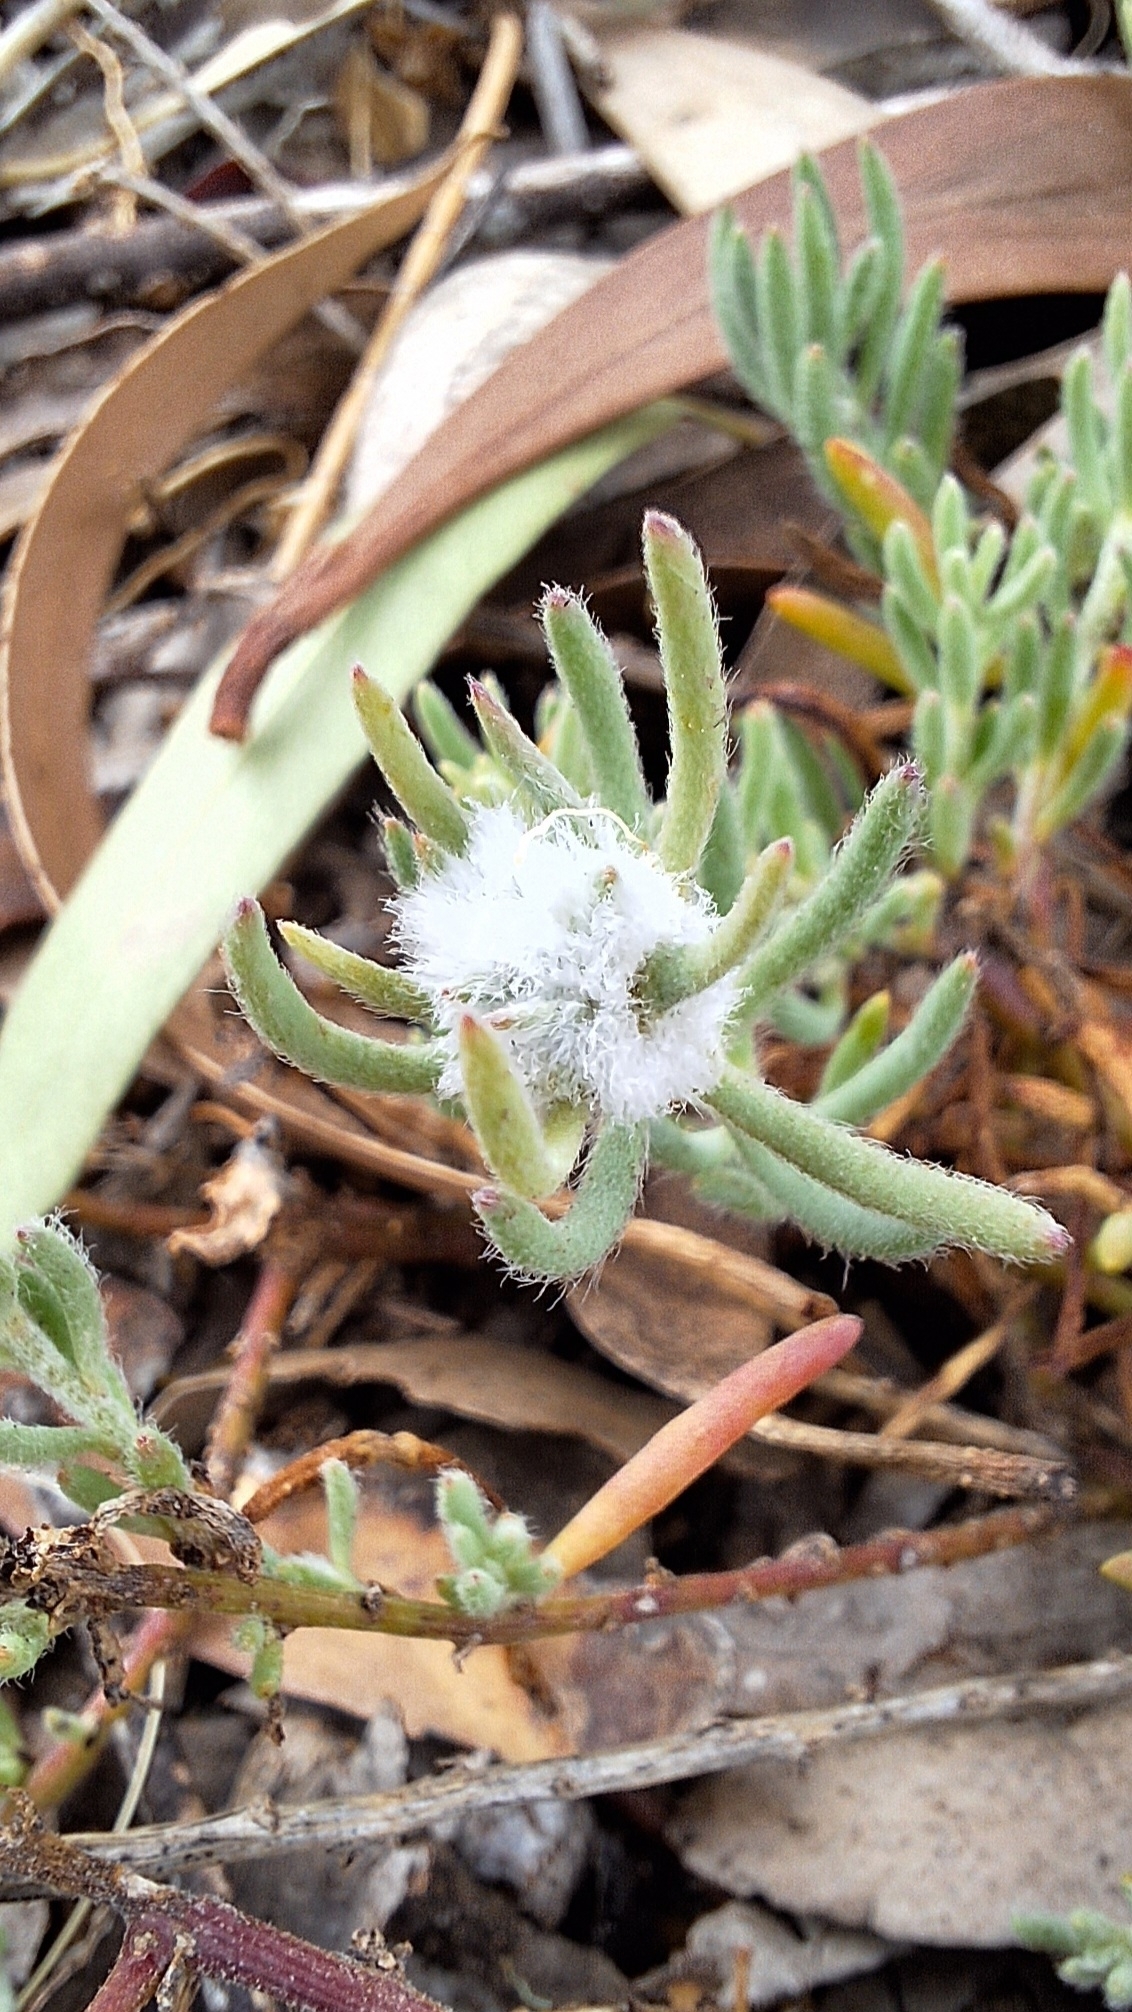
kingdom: Animalia
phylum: Arthropoda
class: Insecta
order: Diptera
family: Cecidomyiidae
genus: Asphondylia
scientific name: Asphondylia tonsura
